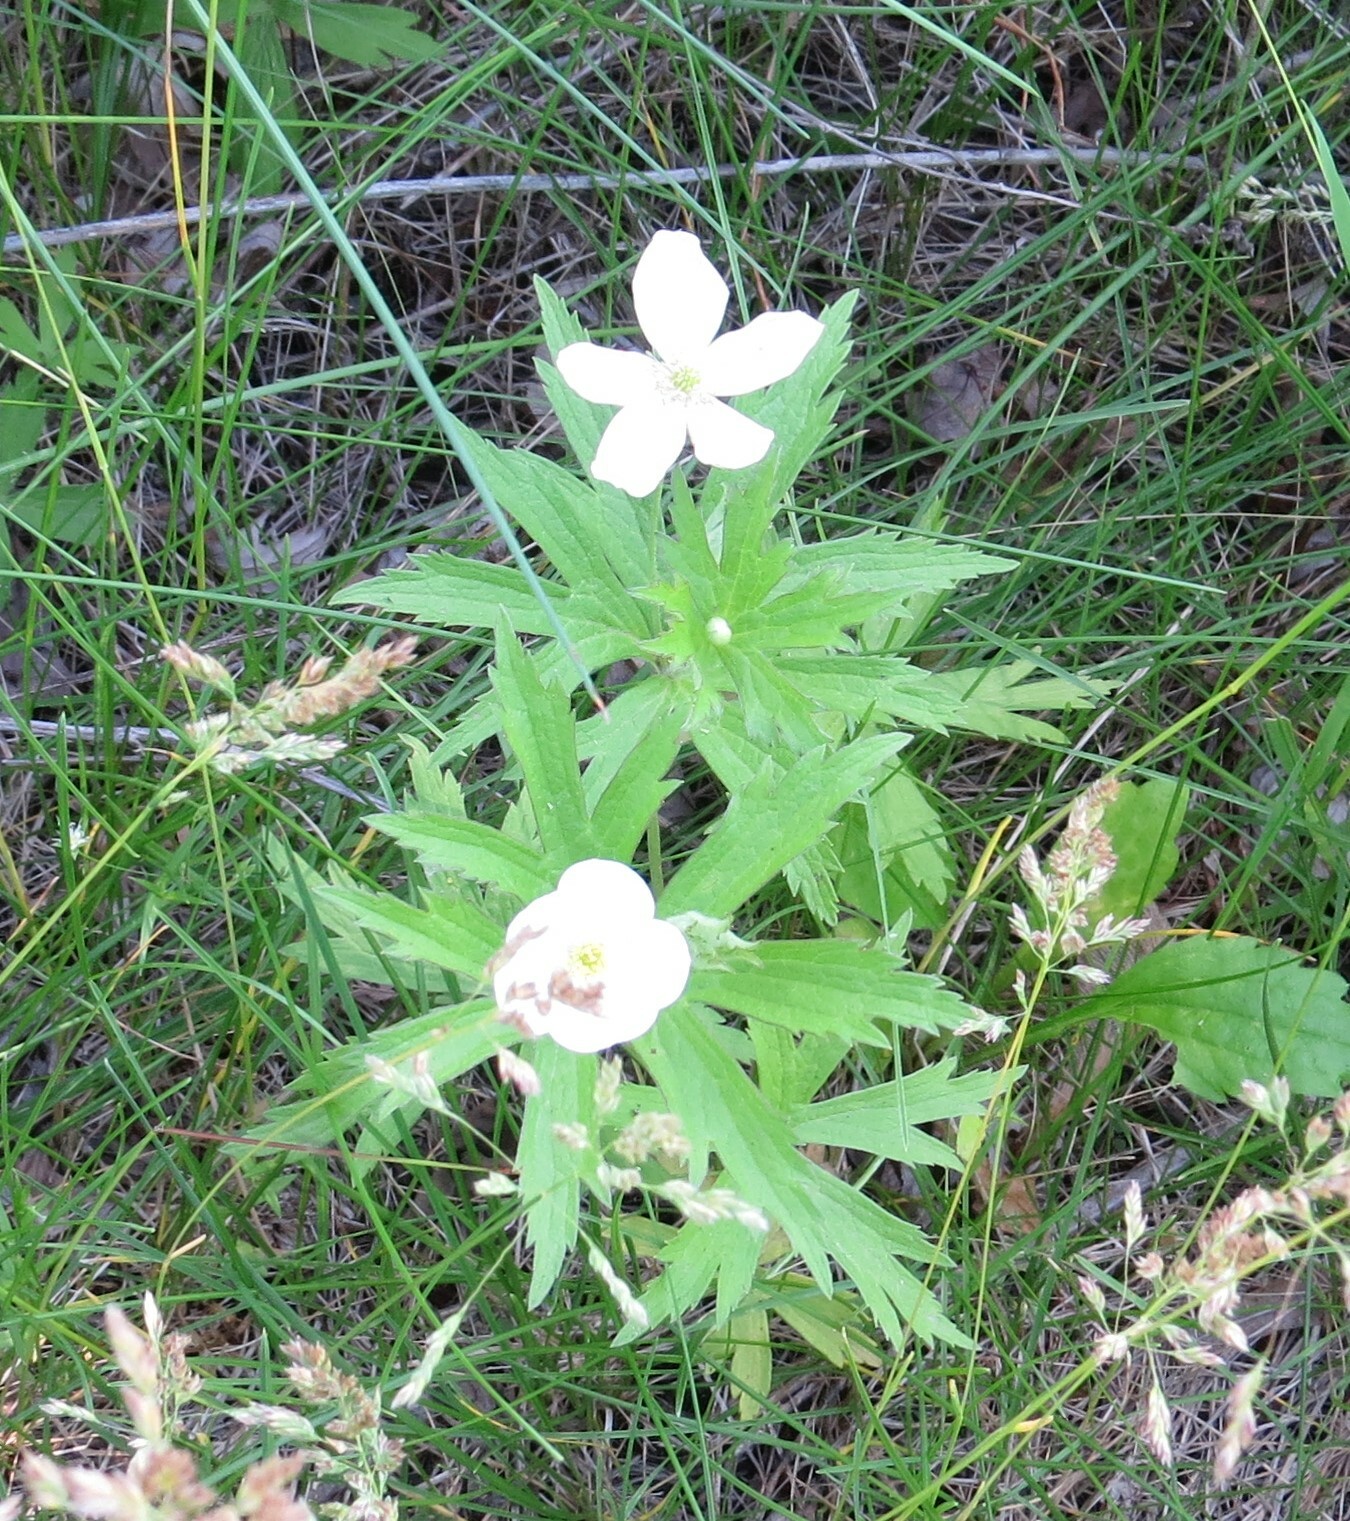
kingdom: Plantae
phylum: Tracheophyta
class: Magnoliopsida
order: Ranunculales
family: Ranunculaceae
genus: Anemonastrum
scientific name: Anemonastrum canadense
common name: Canada anemone
